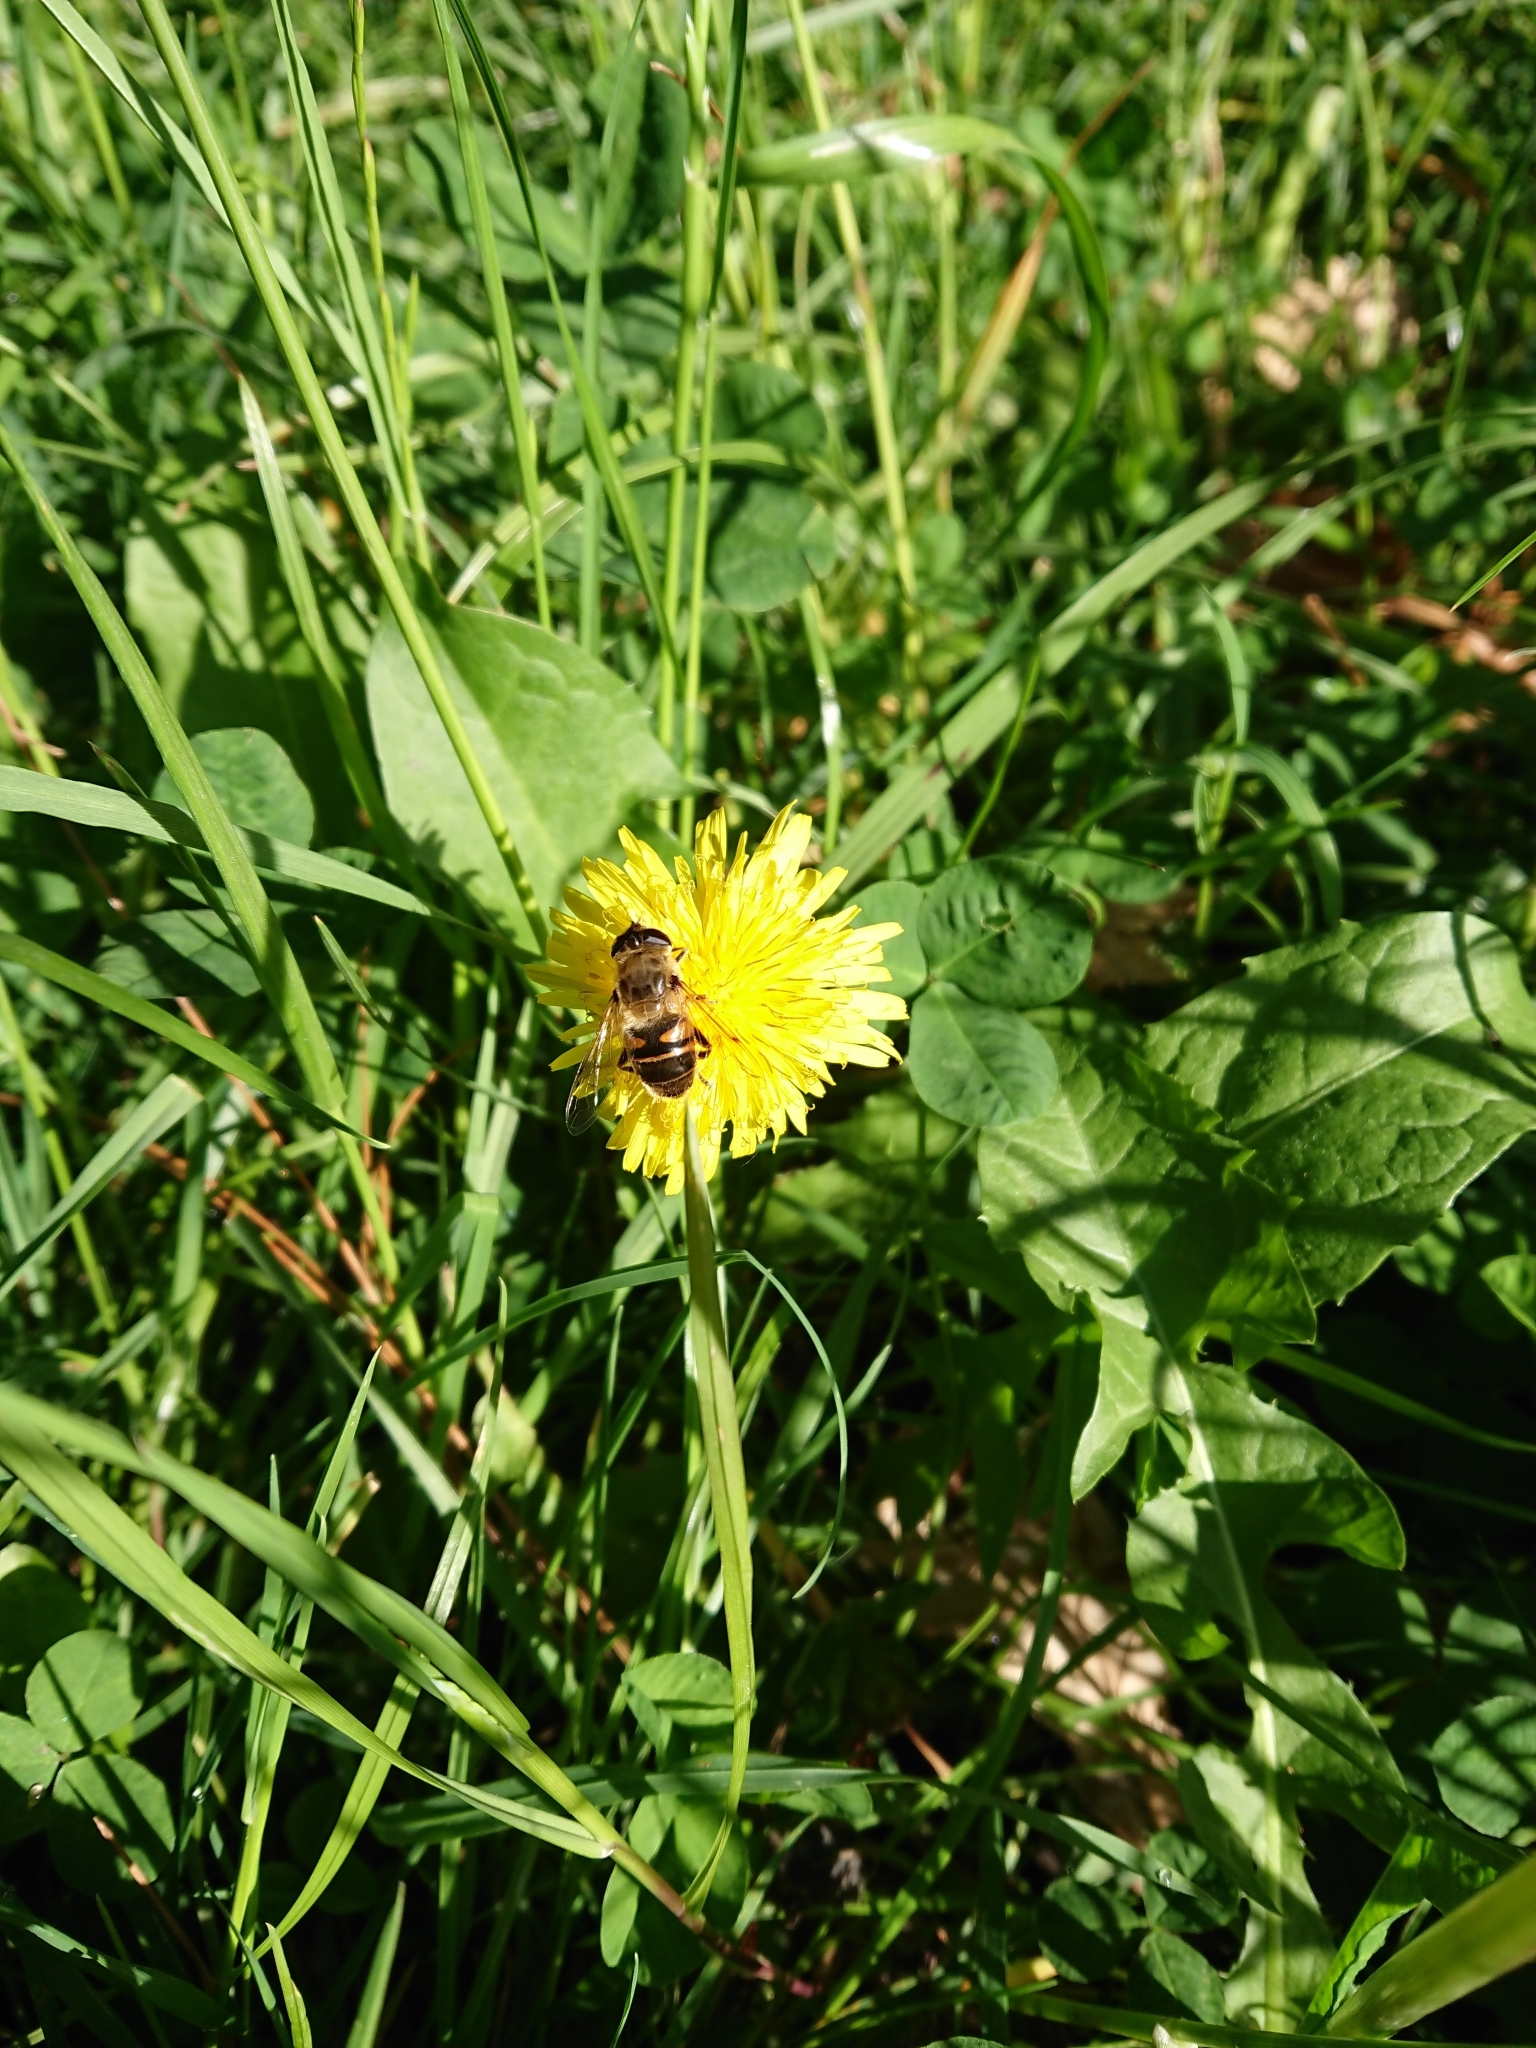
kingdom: Animalia
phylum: Arthropoda
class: Insecta
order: Diptera
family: Syrphidae
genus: Eristalis
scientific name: Eristalis tenax
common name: Drone fly
